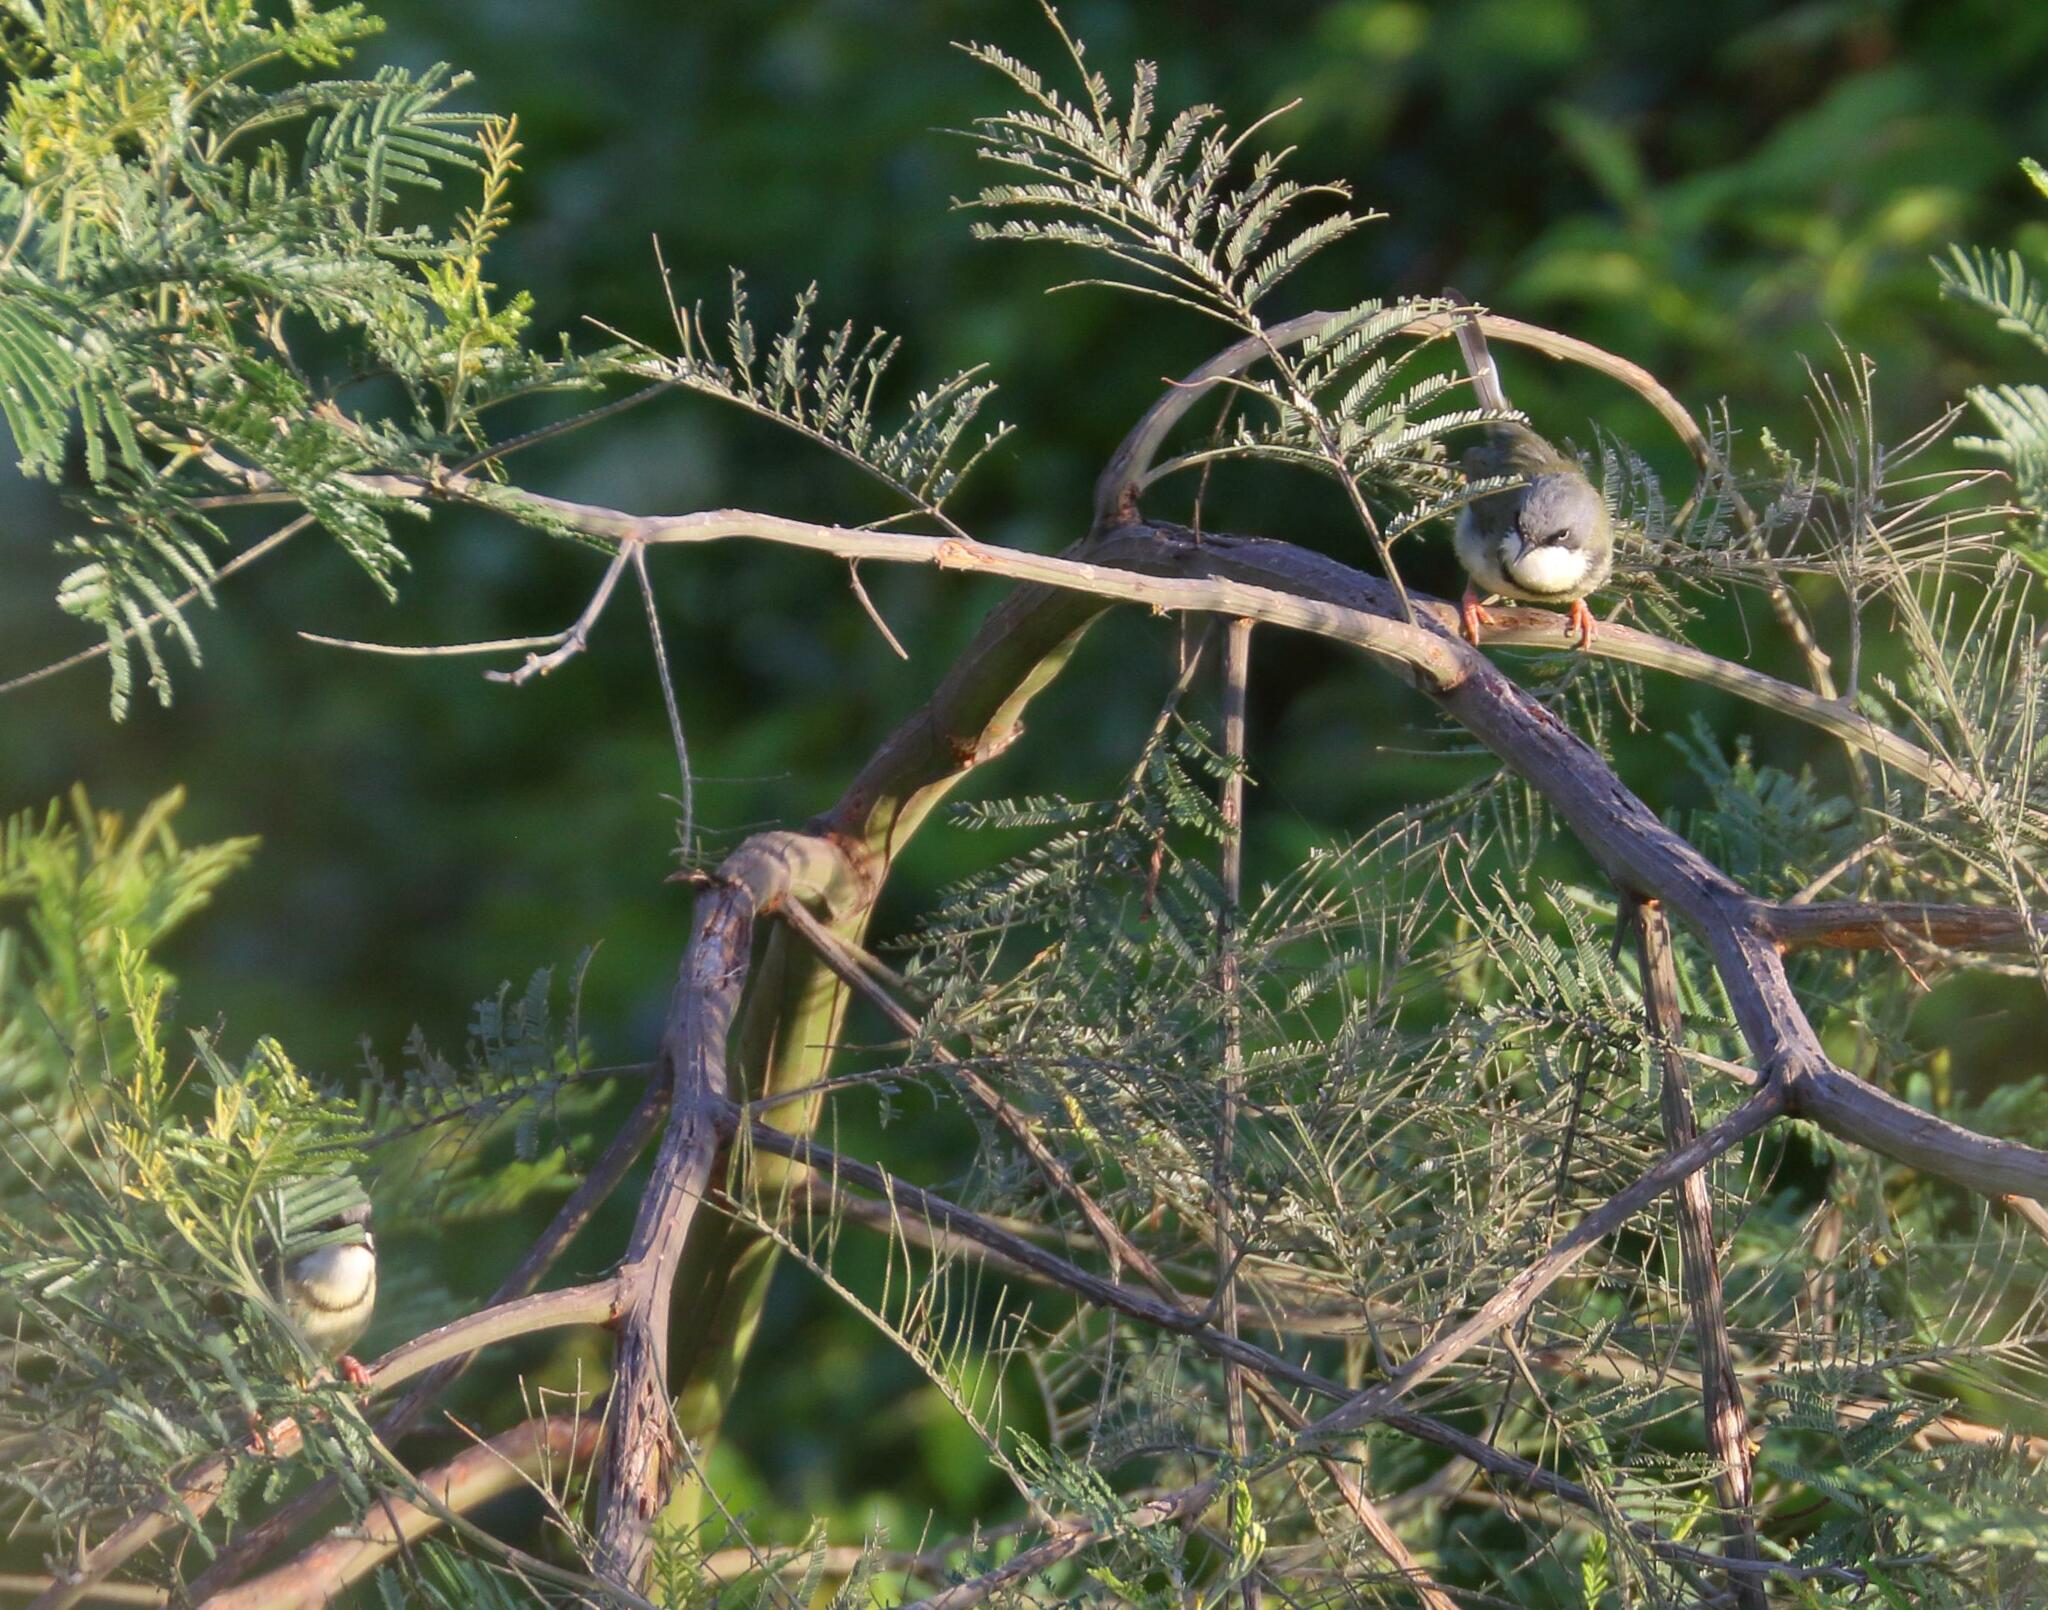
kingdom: Animalia
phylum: Chordata
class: Aves
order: Passeriformes
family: Cisticolidae
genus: Apalis
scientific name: Apalis thoracica
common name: Bar-throated apalis
